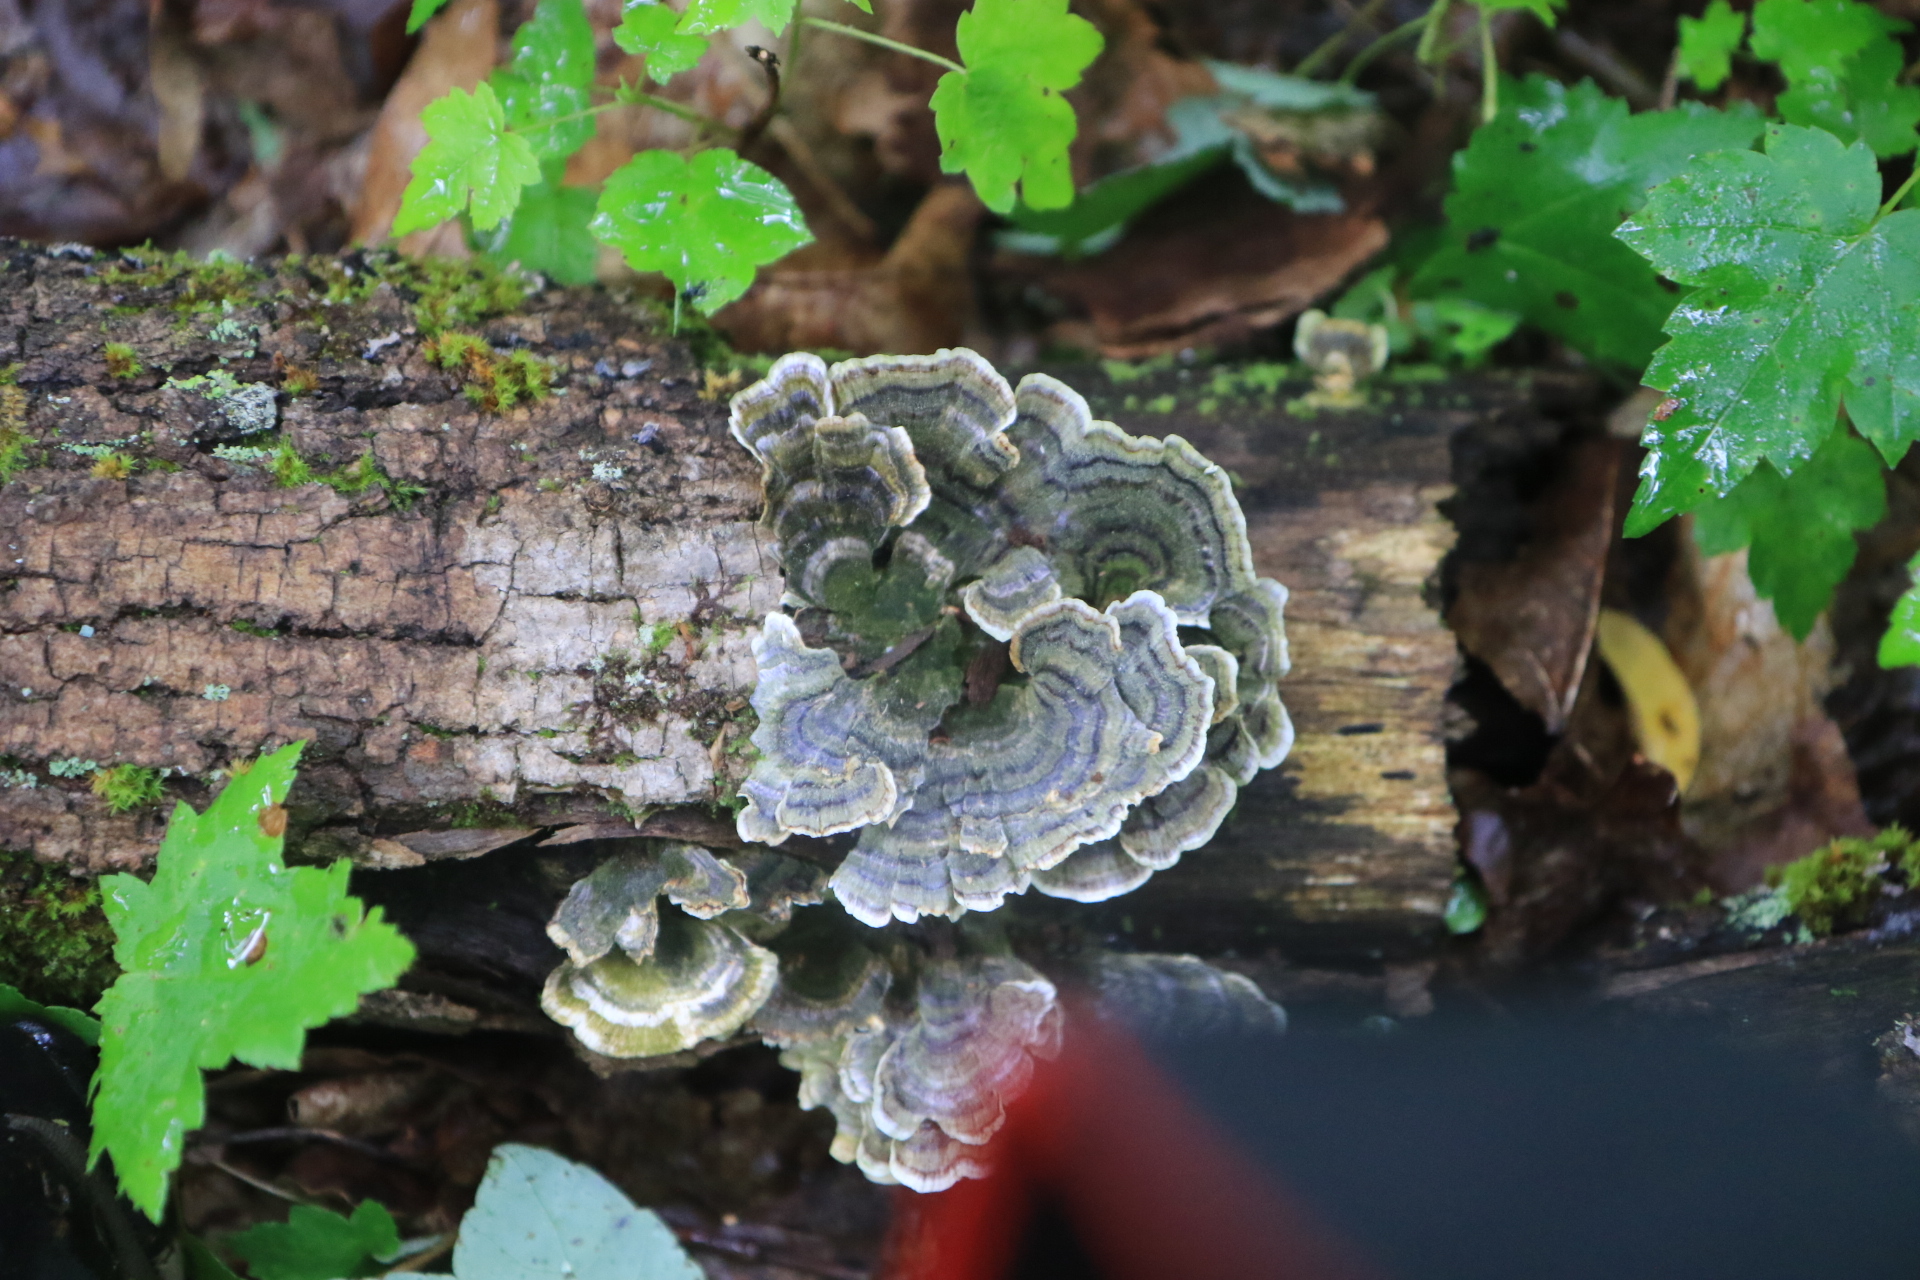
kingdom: Fungi
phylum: Basidiomycota
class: Agaricomycetes
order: Polyporales
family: Polyporaceae
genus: Trametes
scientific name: Trametes
